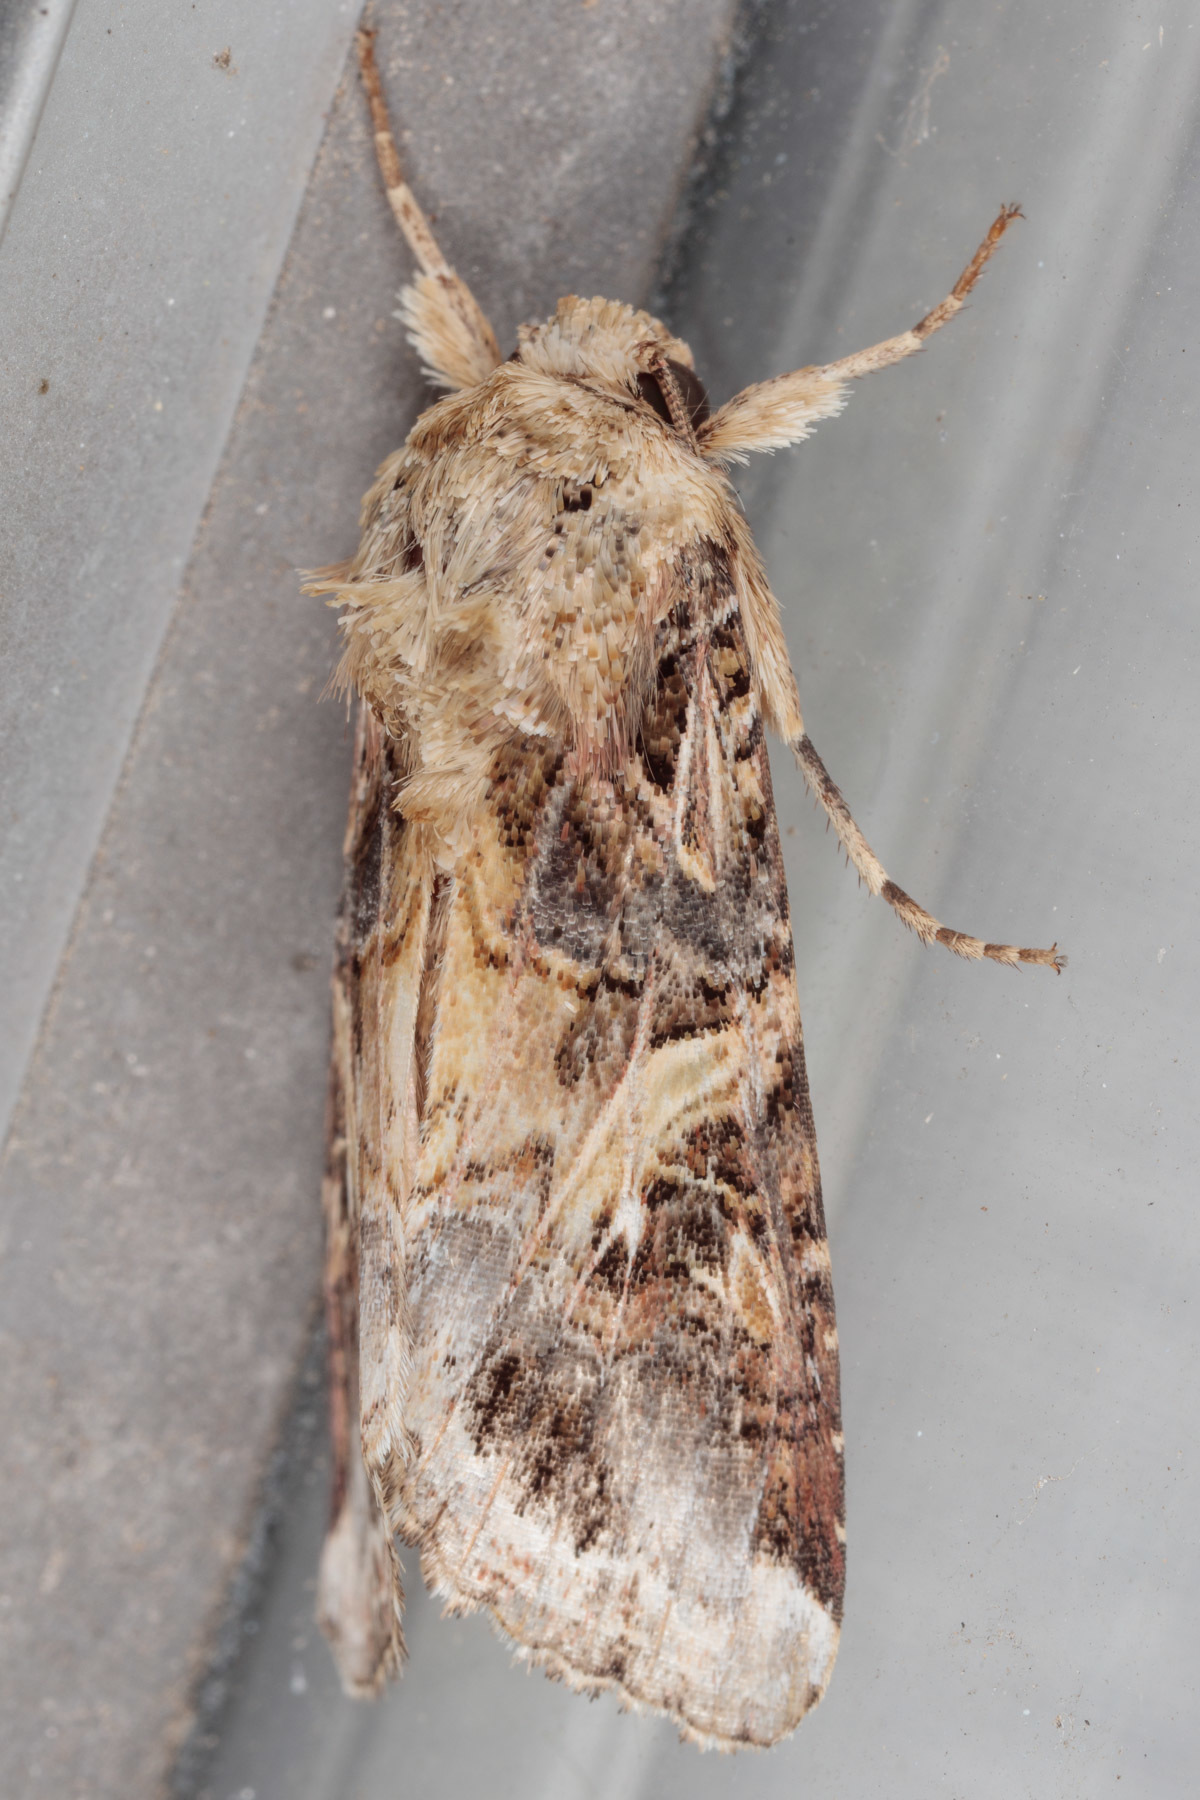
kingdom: Animalia
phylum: Arthropoda
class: Insecta
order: Lepidoptera
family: Noctuidae
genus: Spodoptera
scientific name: Spodoptera ornithogalli
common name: Yellow-striped armyworm
